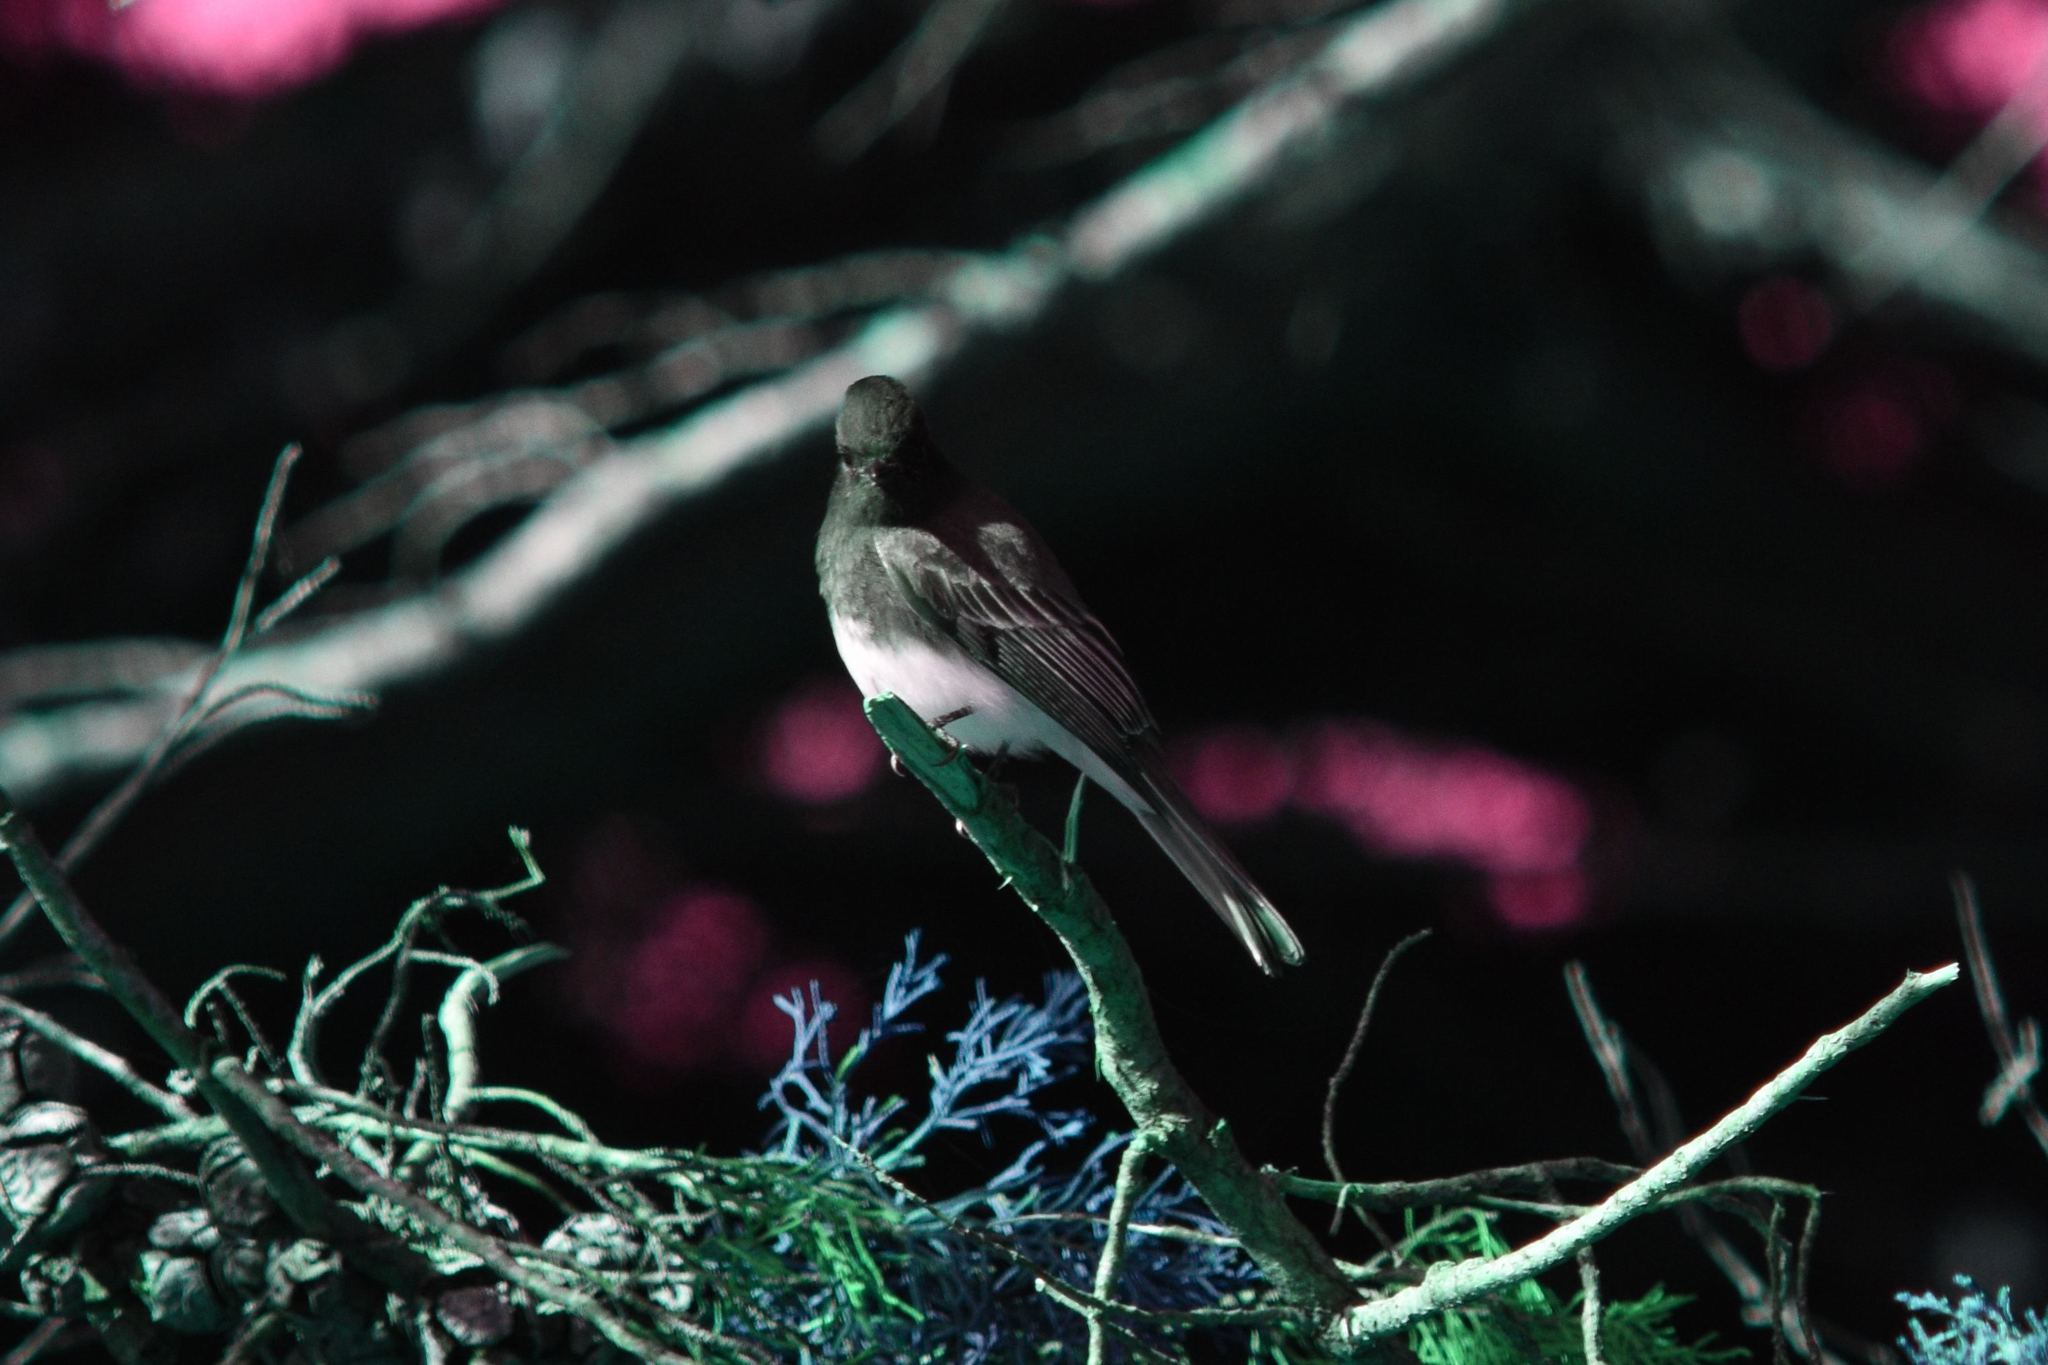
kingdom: Animalia
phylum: Chordata
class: Aves
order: Passeriformes
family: Tyrannidae
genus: Sayornis
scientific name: Sayornis nigricans
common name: Black phoebe
